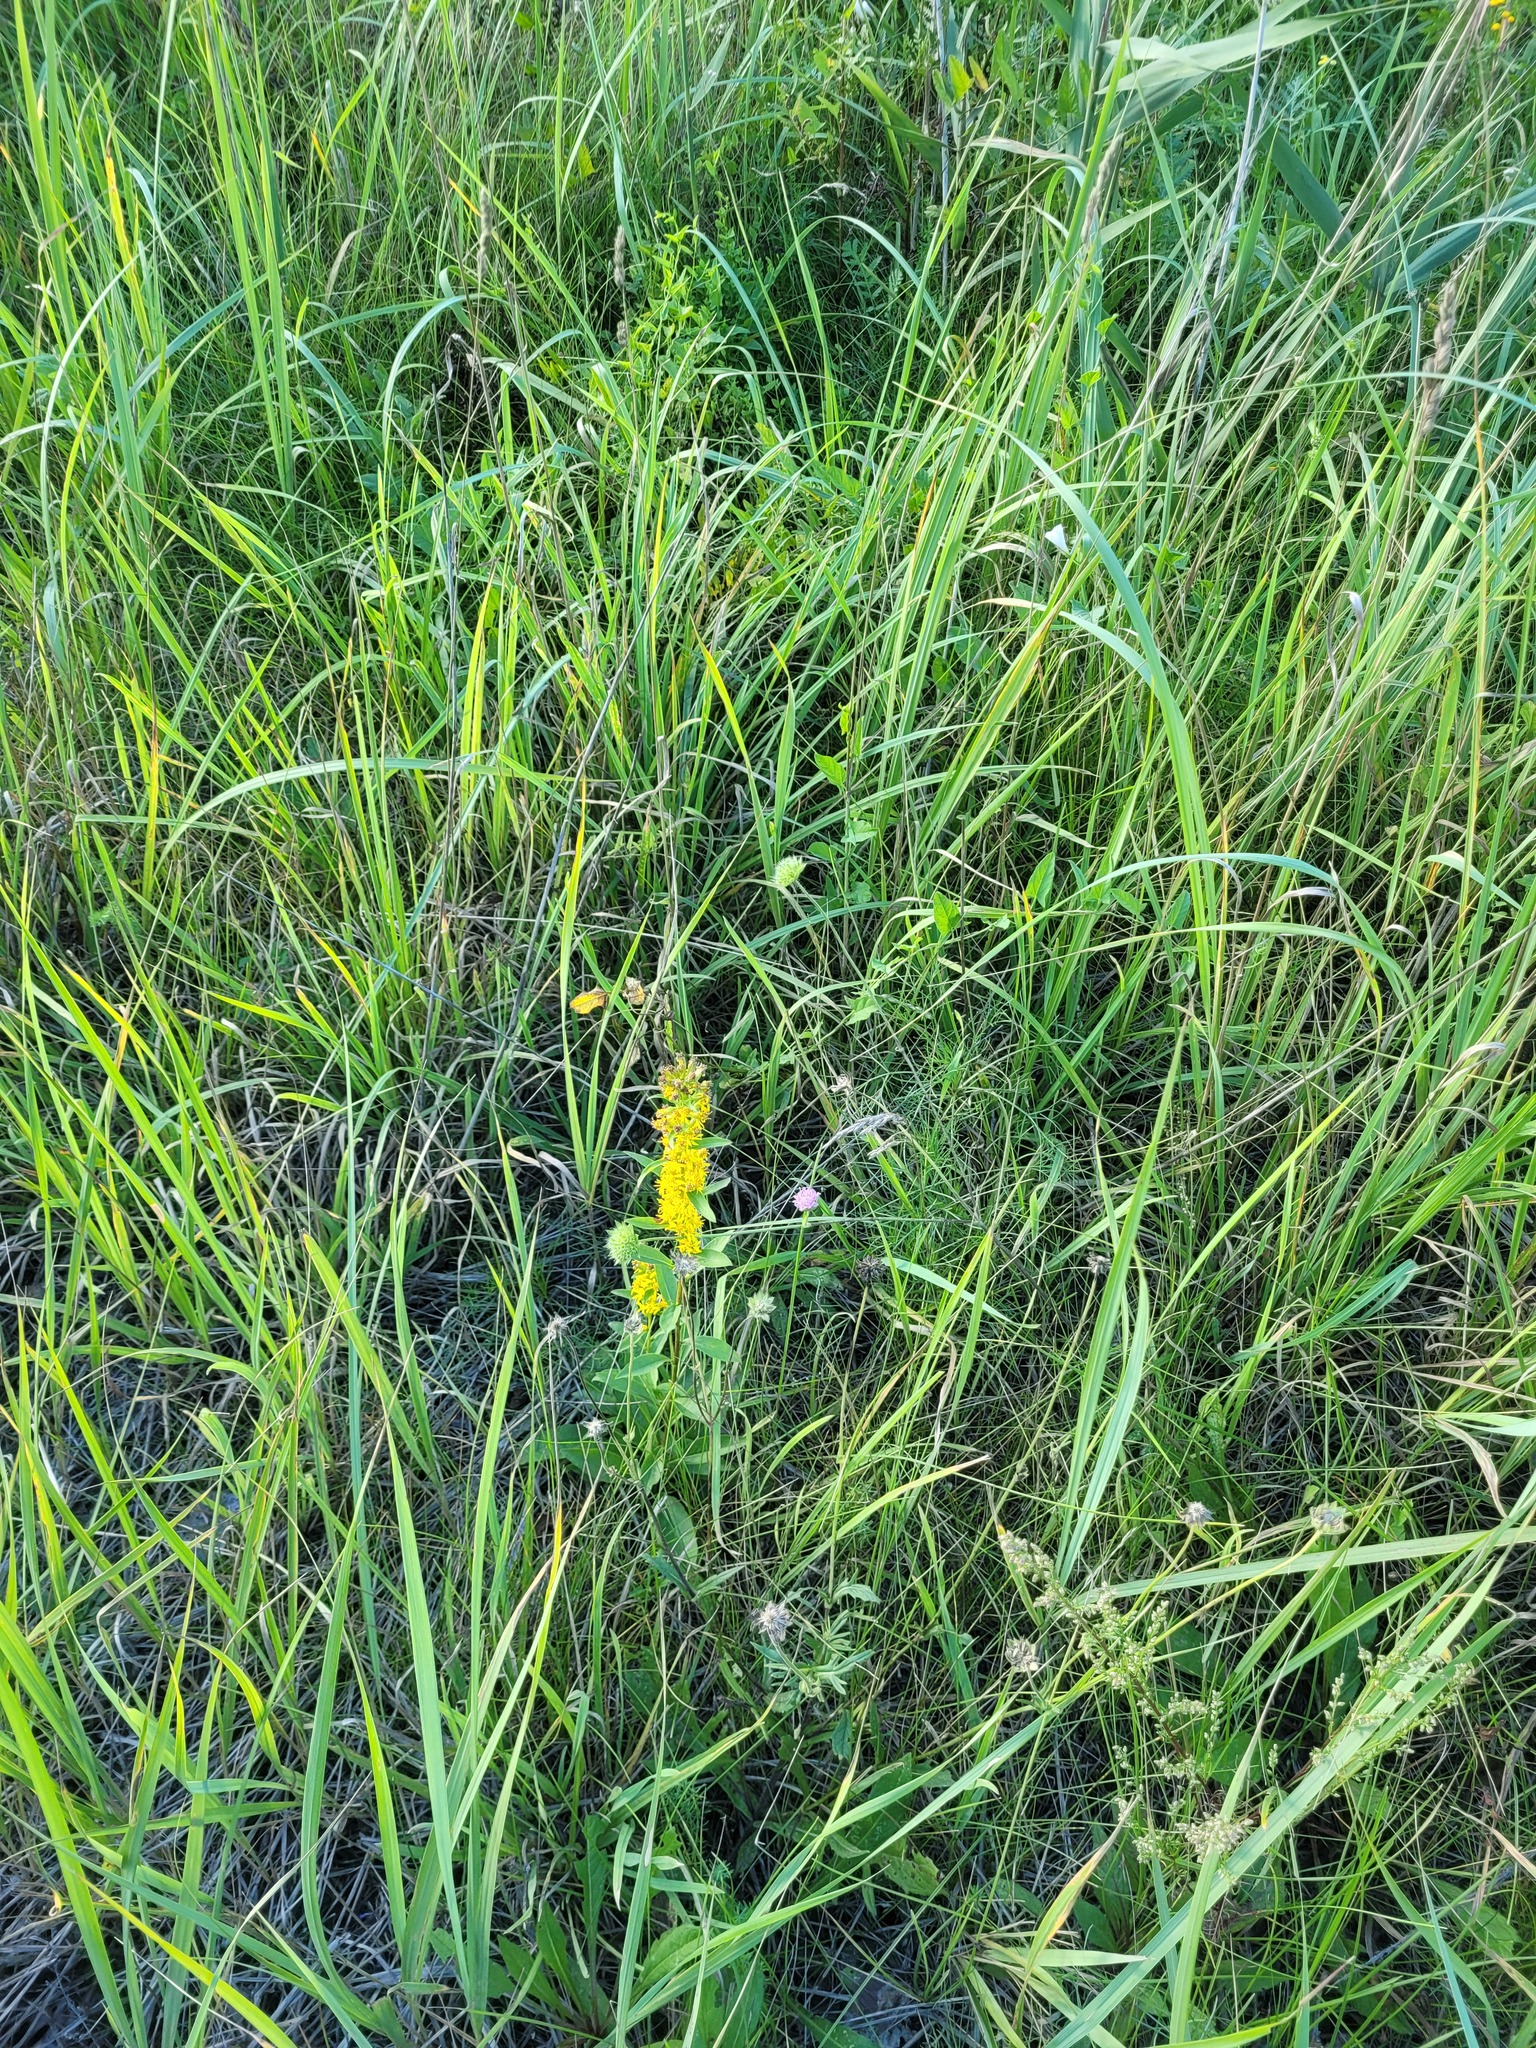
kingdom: Plantae
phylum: Tracheophyta
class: Magnoliopsida
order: Asterales
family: Asteraceae
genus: Solidago
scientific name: Solidago virgaurea
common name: Goldenrod
